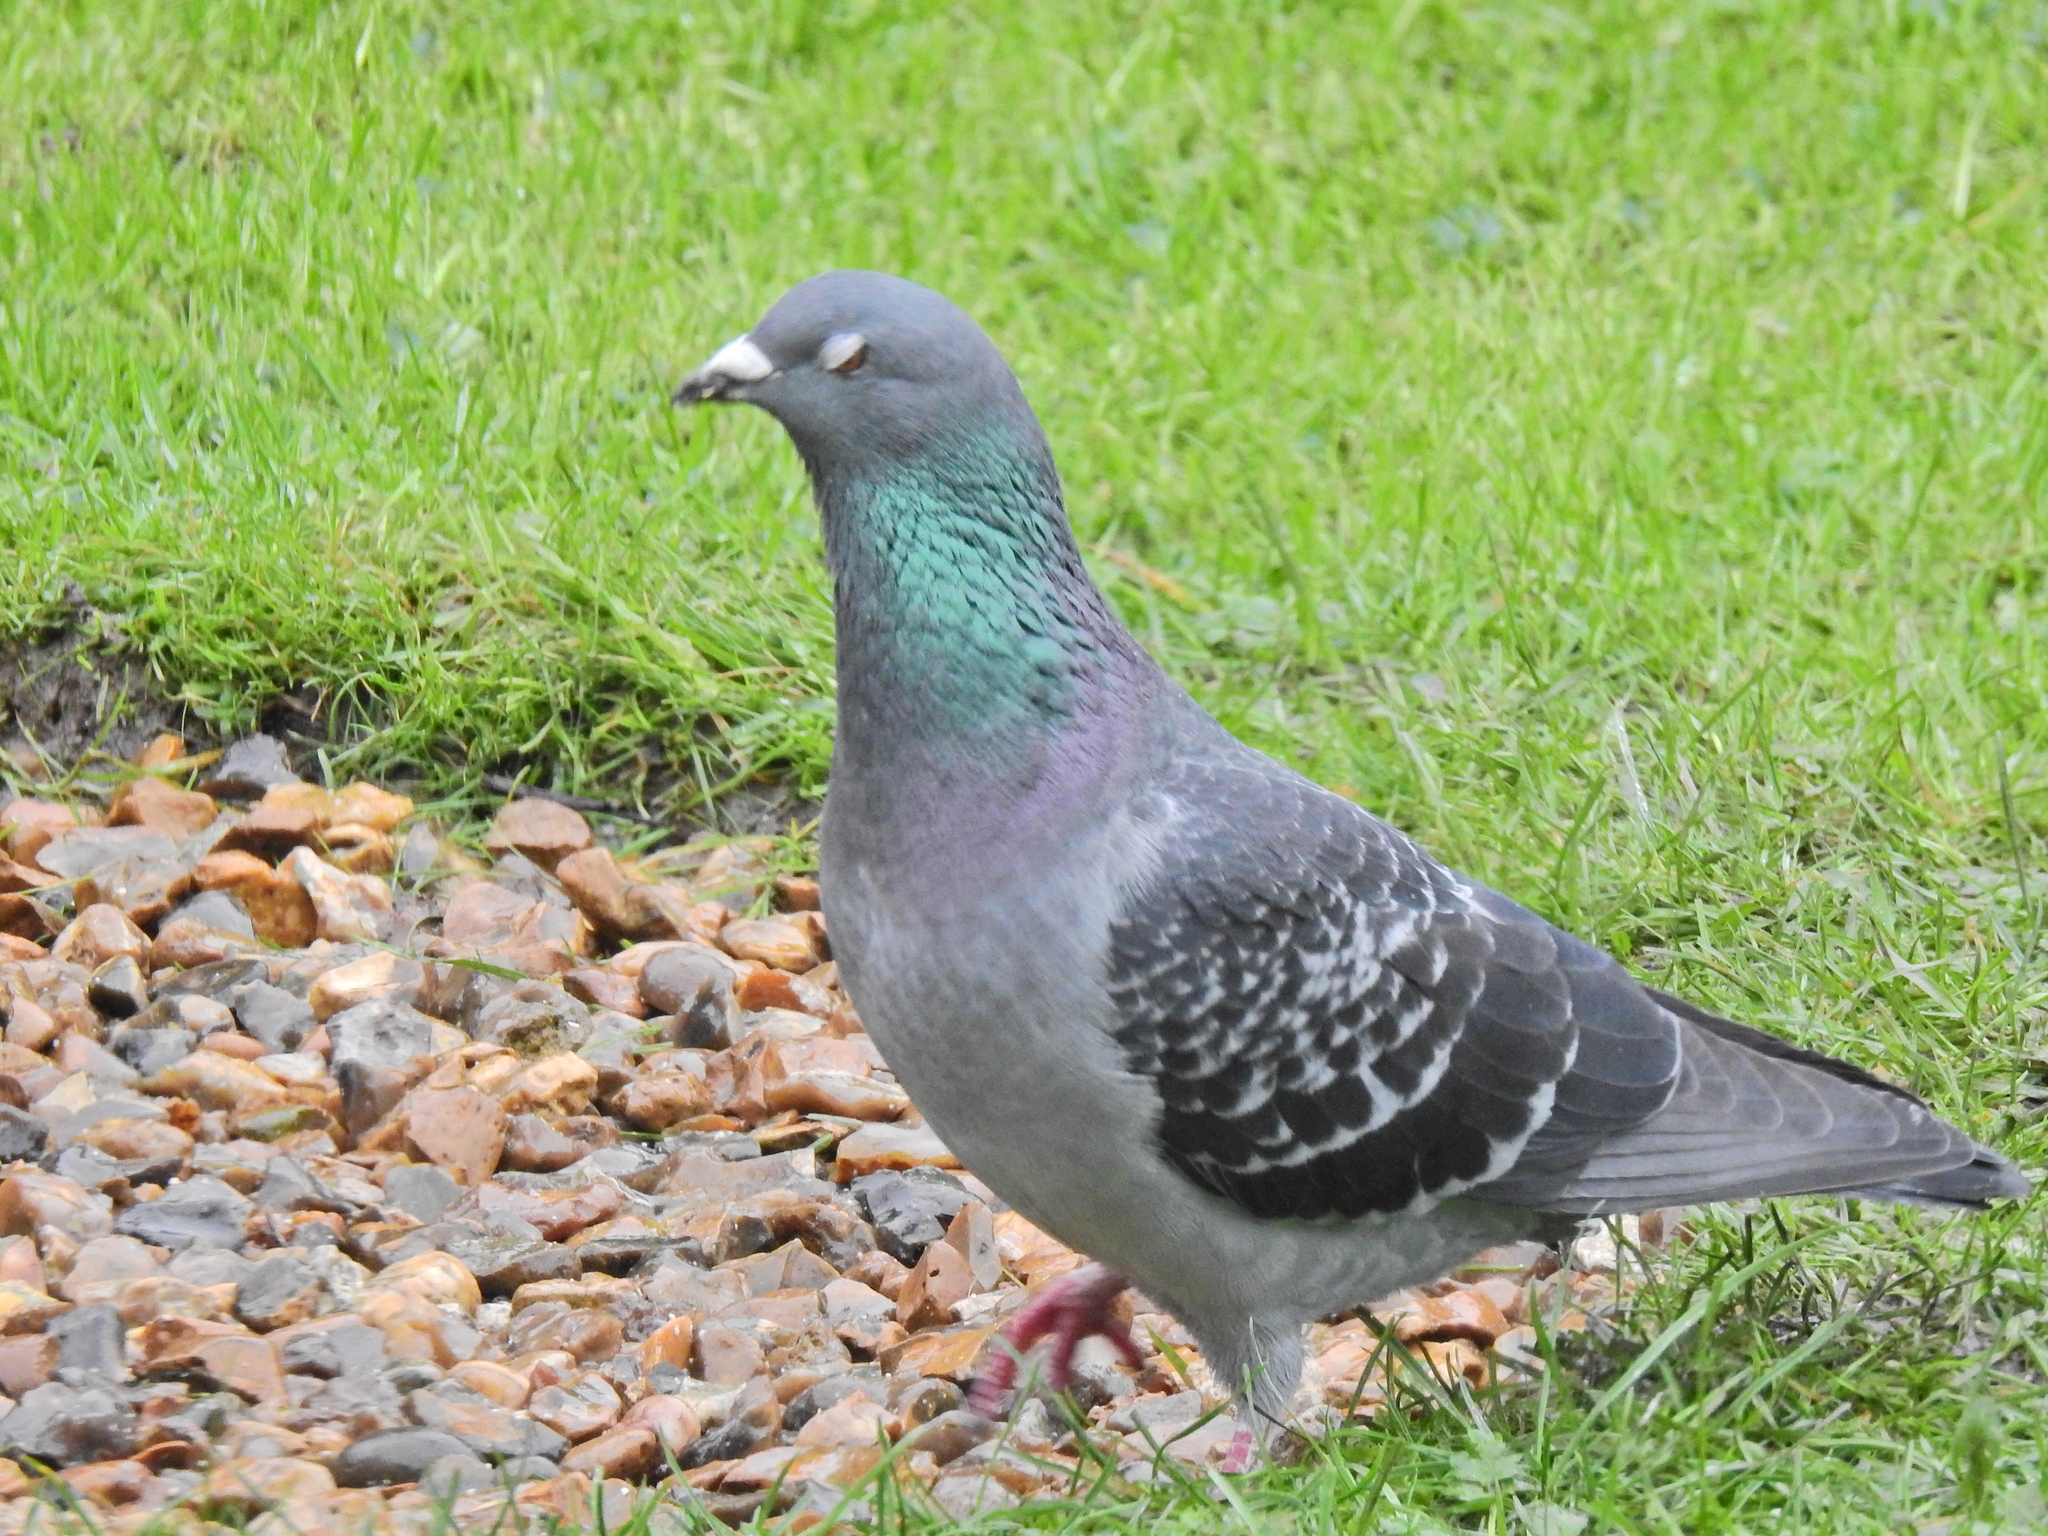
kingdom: Animalia
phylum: Chordata
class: Aves
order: Columbiformes
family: Columbidae
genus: Columba
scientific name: Columba livia
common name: Rock pigeon
